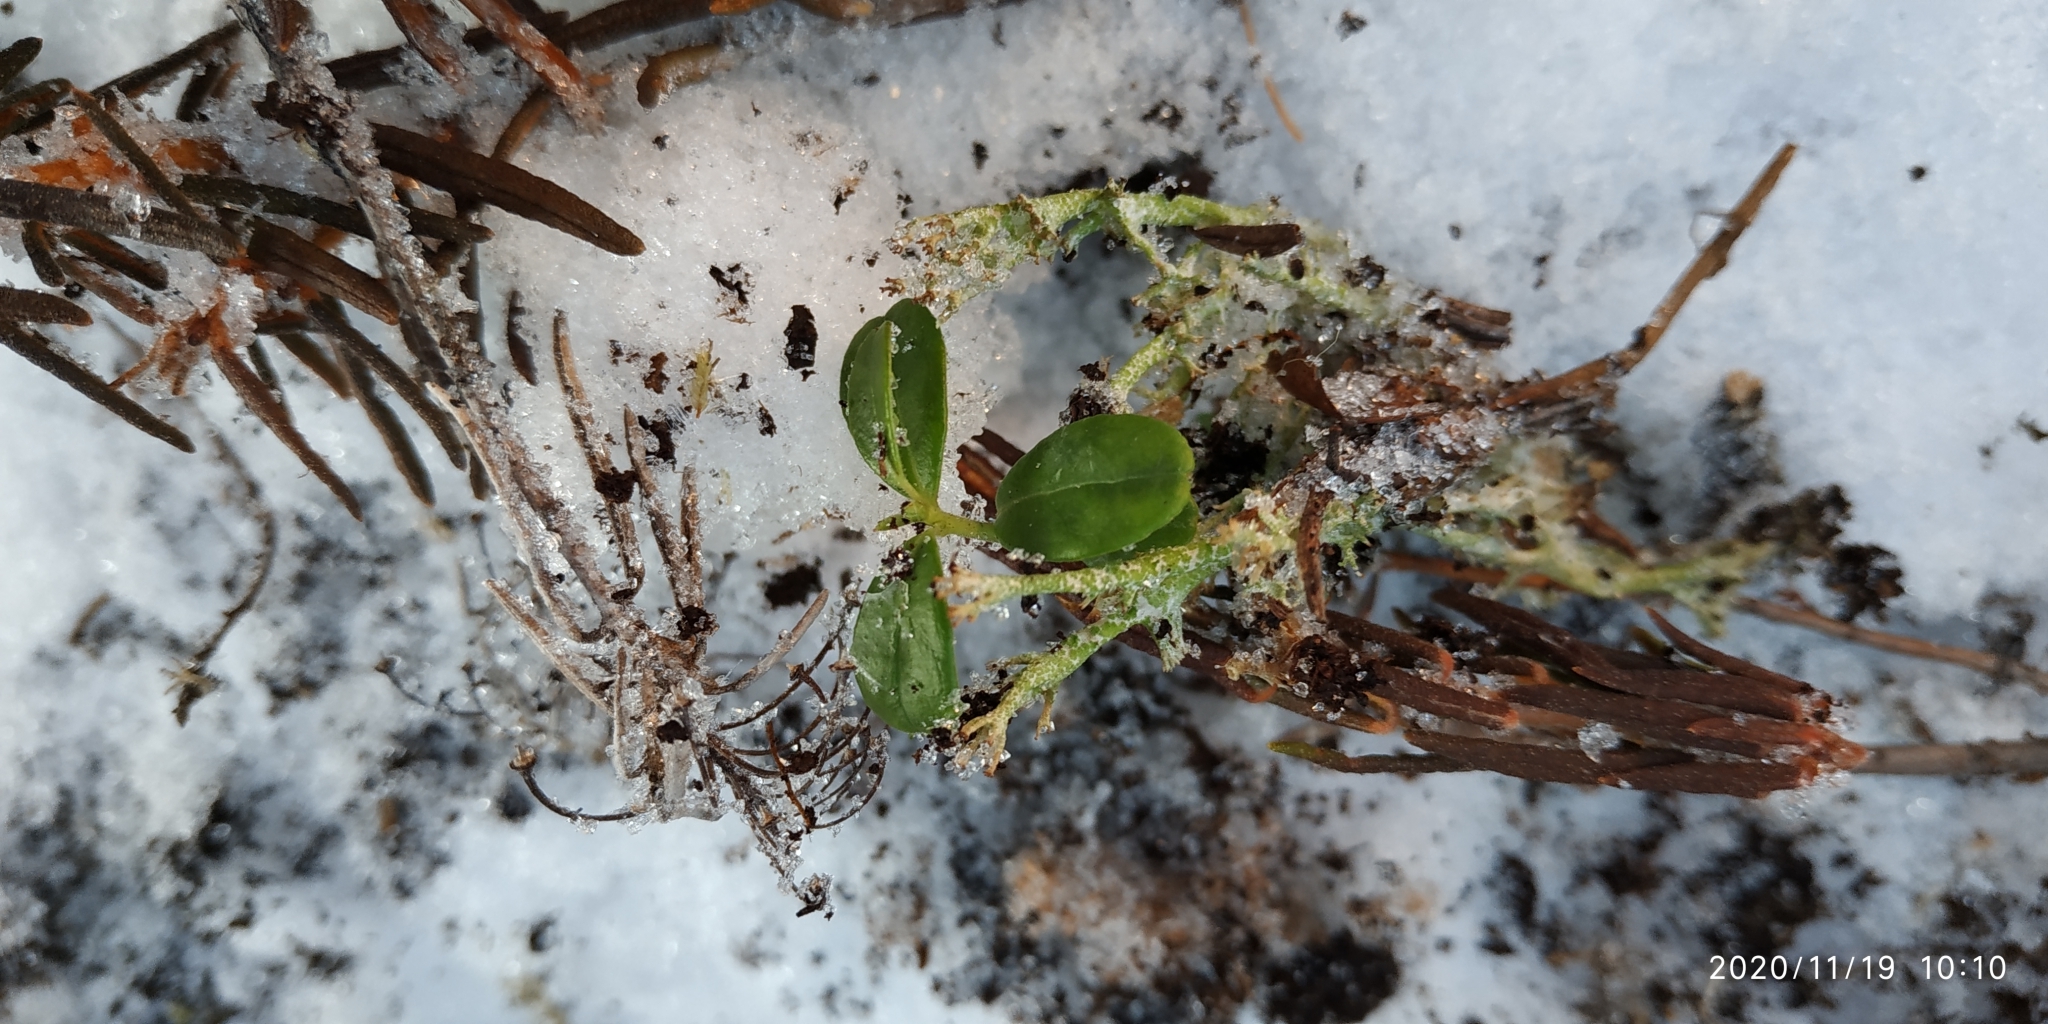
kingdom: Plantae
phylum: Tracheophyta
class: Magnoliopsida
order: Ericales
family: Ericaceae
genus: Vaccinium
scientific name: Vaccinium vitis-idaea
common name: Cowberry
